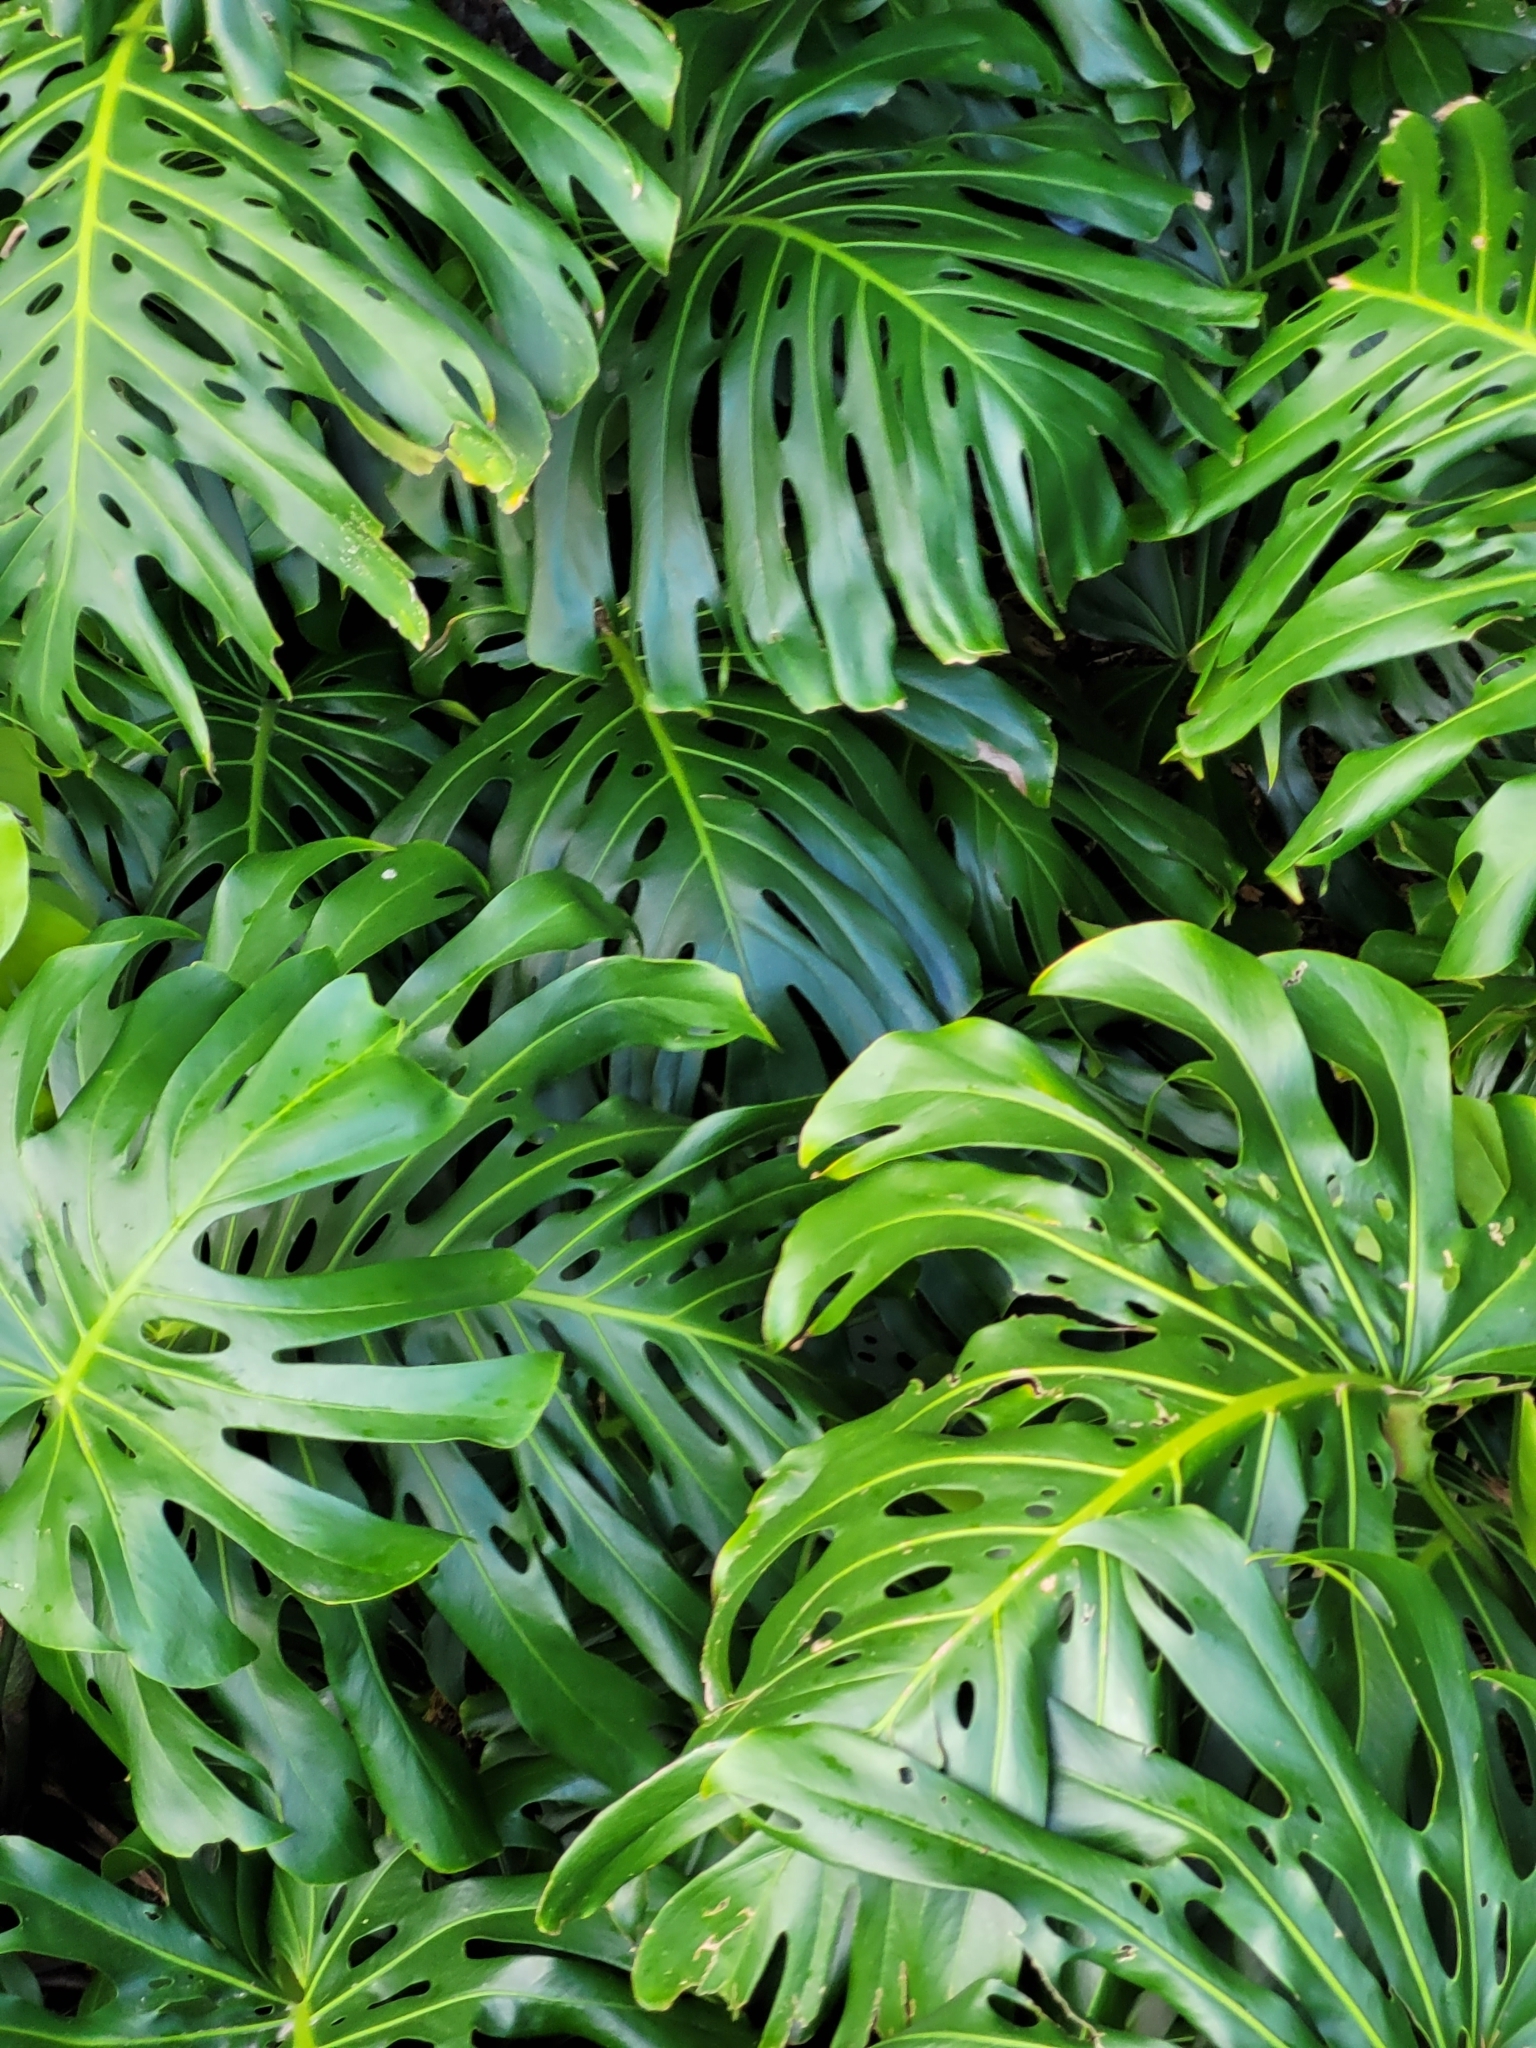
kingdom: Plantae
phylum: Tracheophyta
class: Liliopsida
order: Alismatales
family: Araceae
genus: Monstera
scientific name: Monstera deliciosa
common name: Cut-leaf-philodendron
